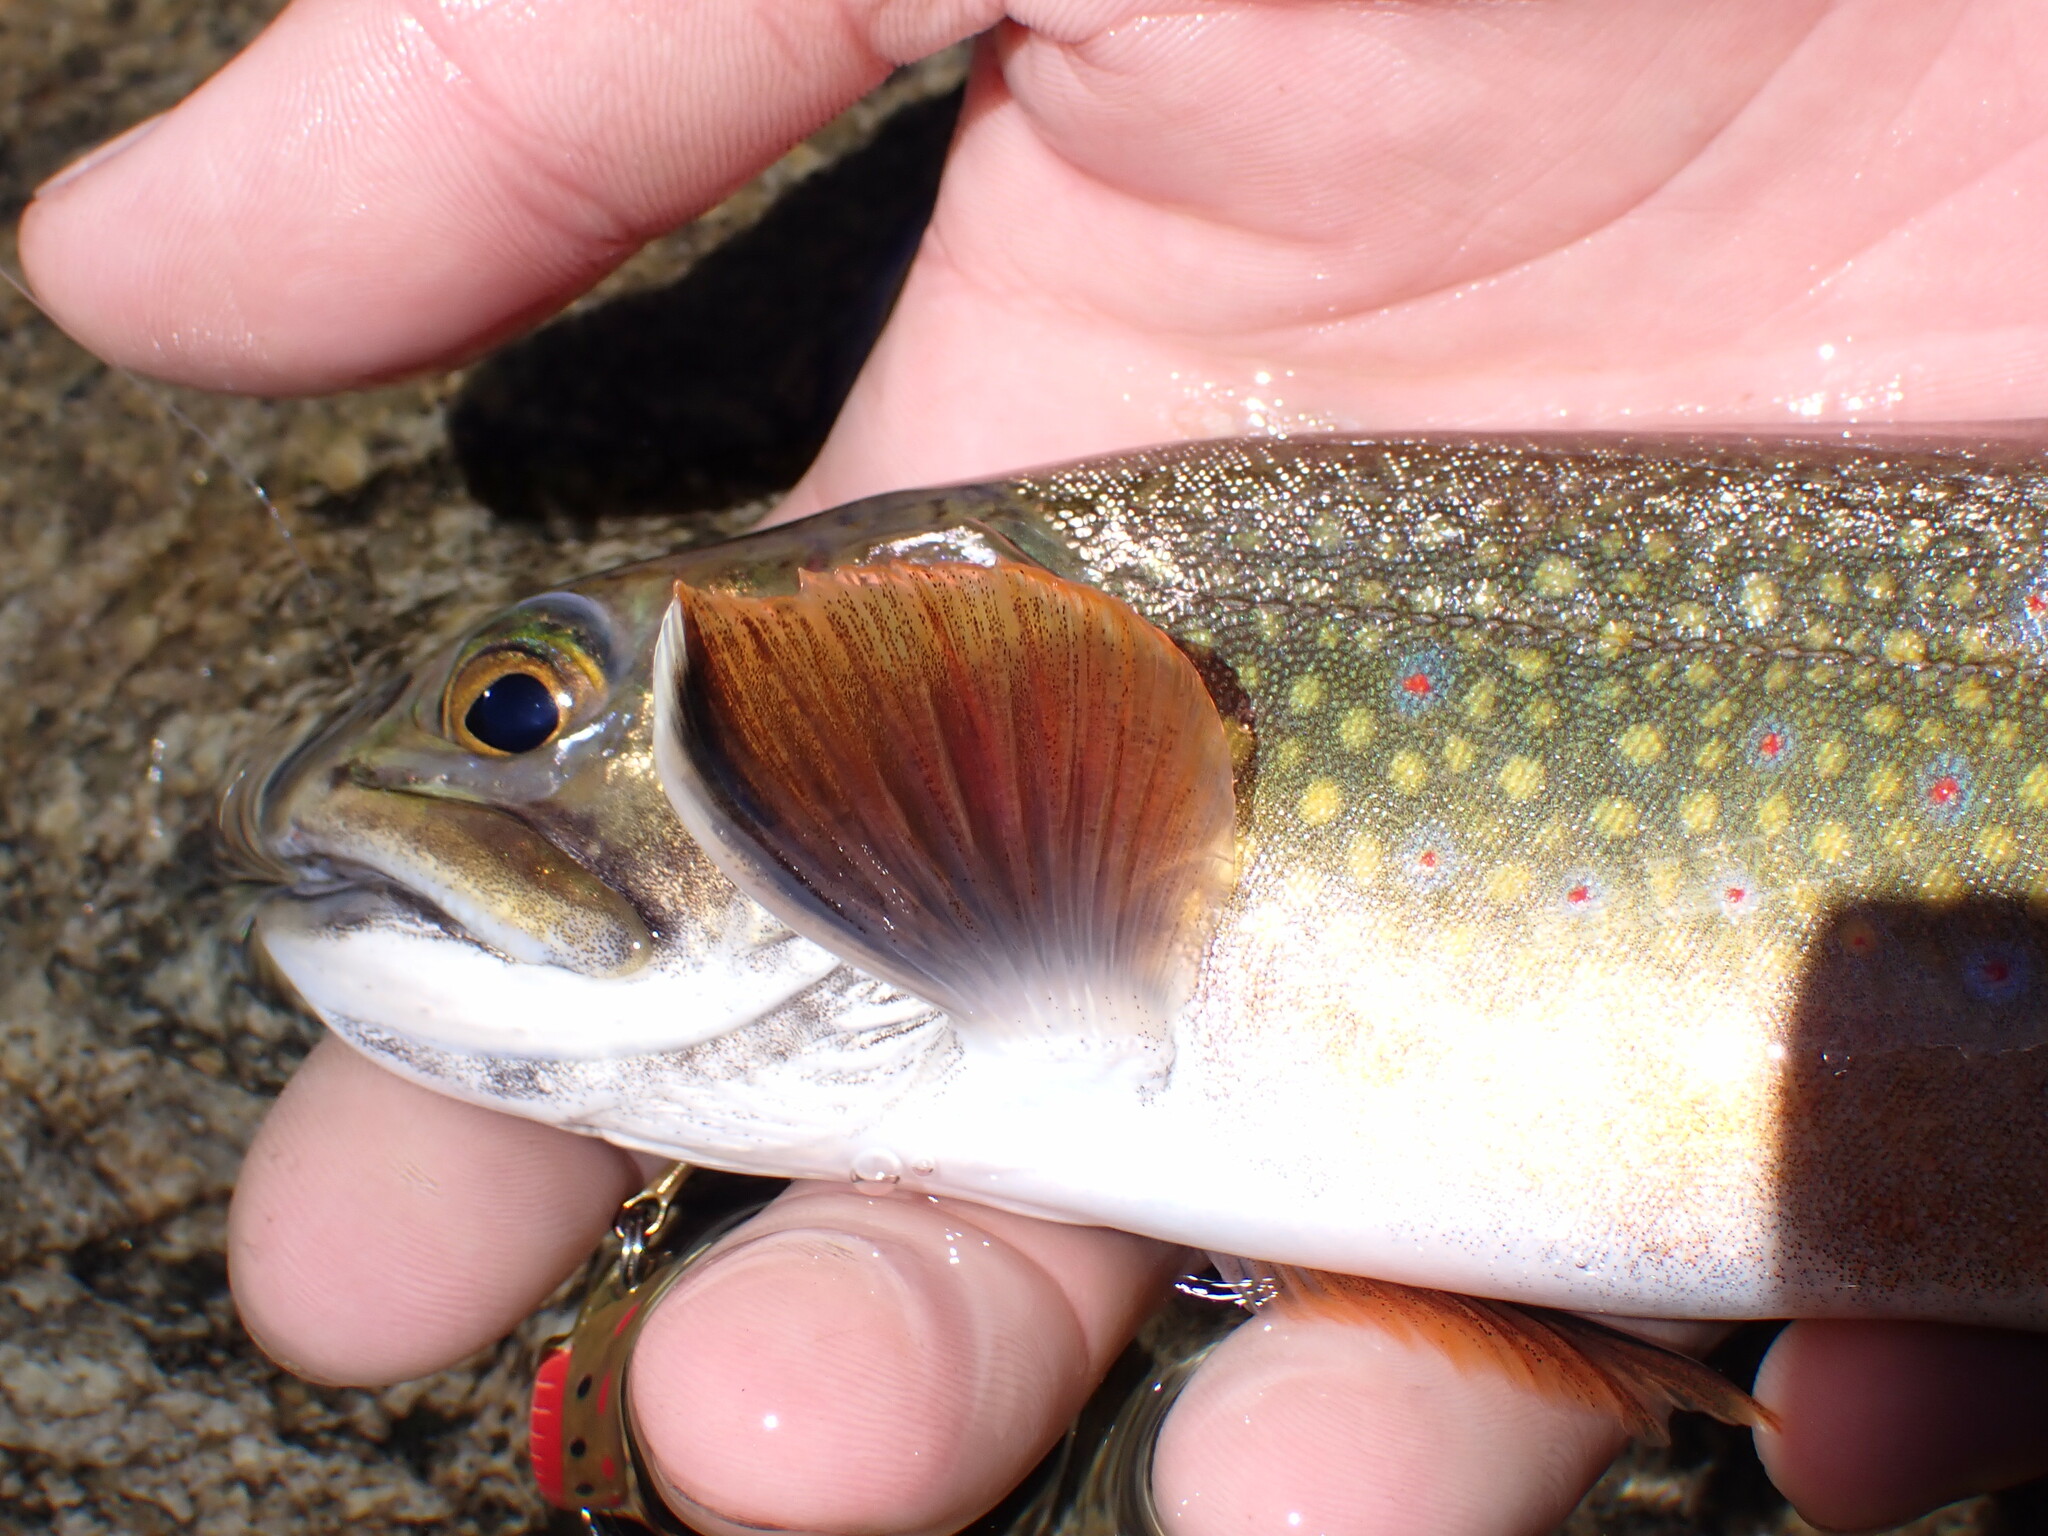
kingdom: Animalia
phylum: Chordata
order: Salmoniformes
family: Salmonidae
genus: Salvelinus
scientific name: Salvelinus fontinalis
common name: Brook trout
